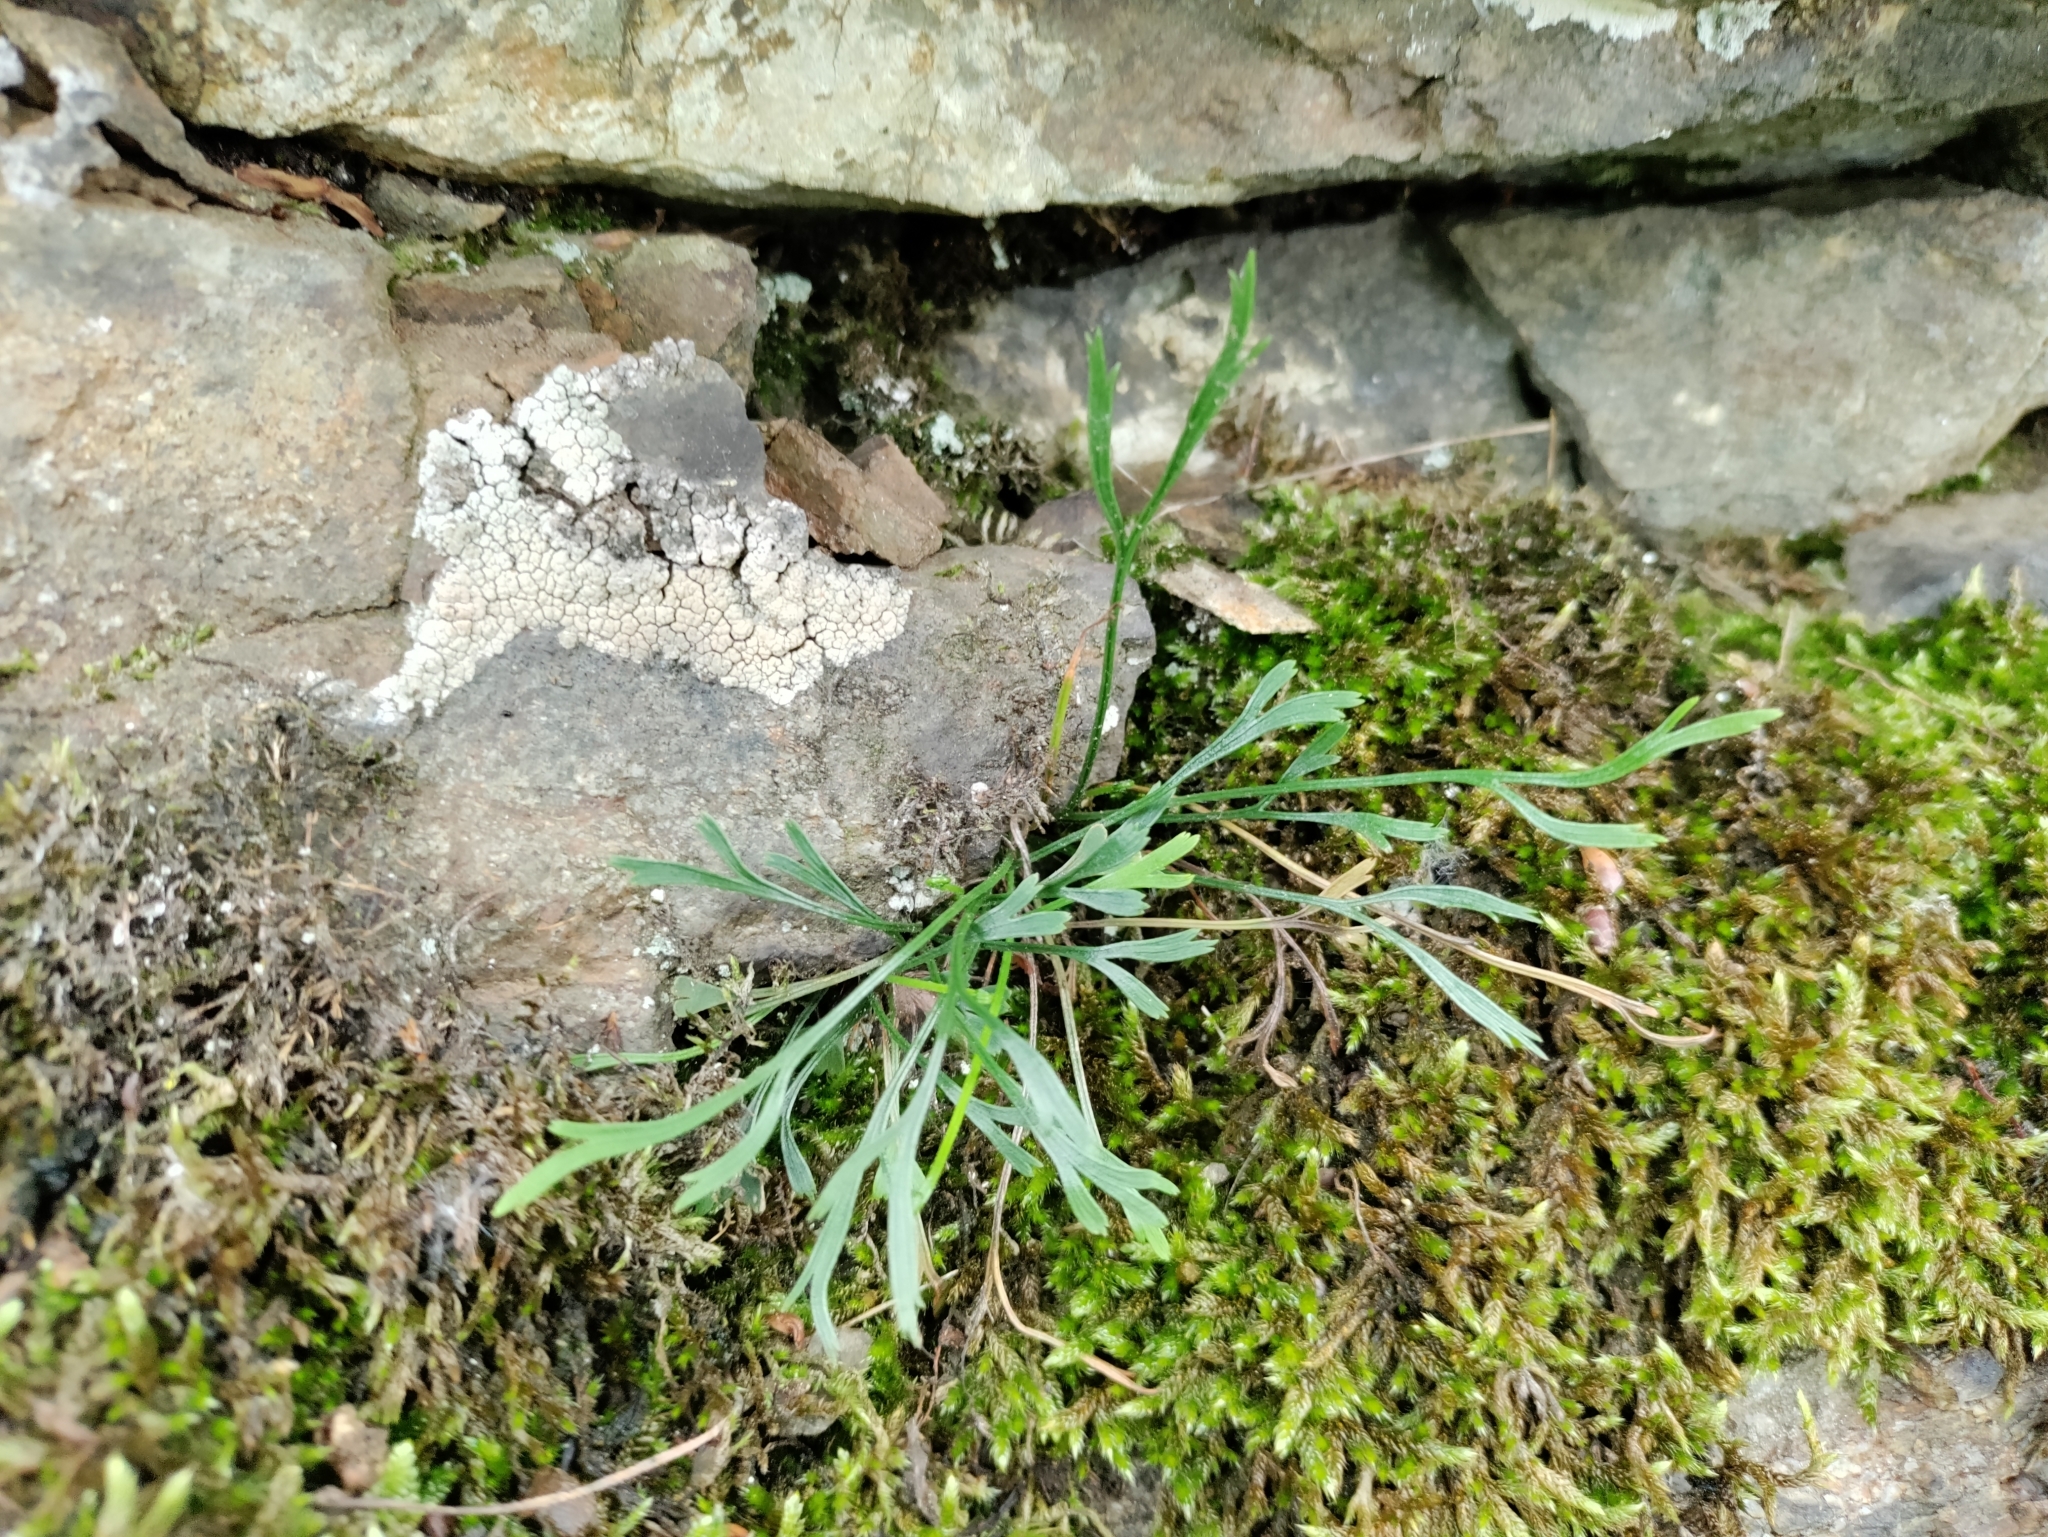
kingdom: Plantae
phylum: Tracheophyta
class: Polypodiopsida
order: Polypodiales
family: Aspleniaceae
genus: Asplenium
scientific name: Asplenium septentrionale
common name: Forked spleenwort
